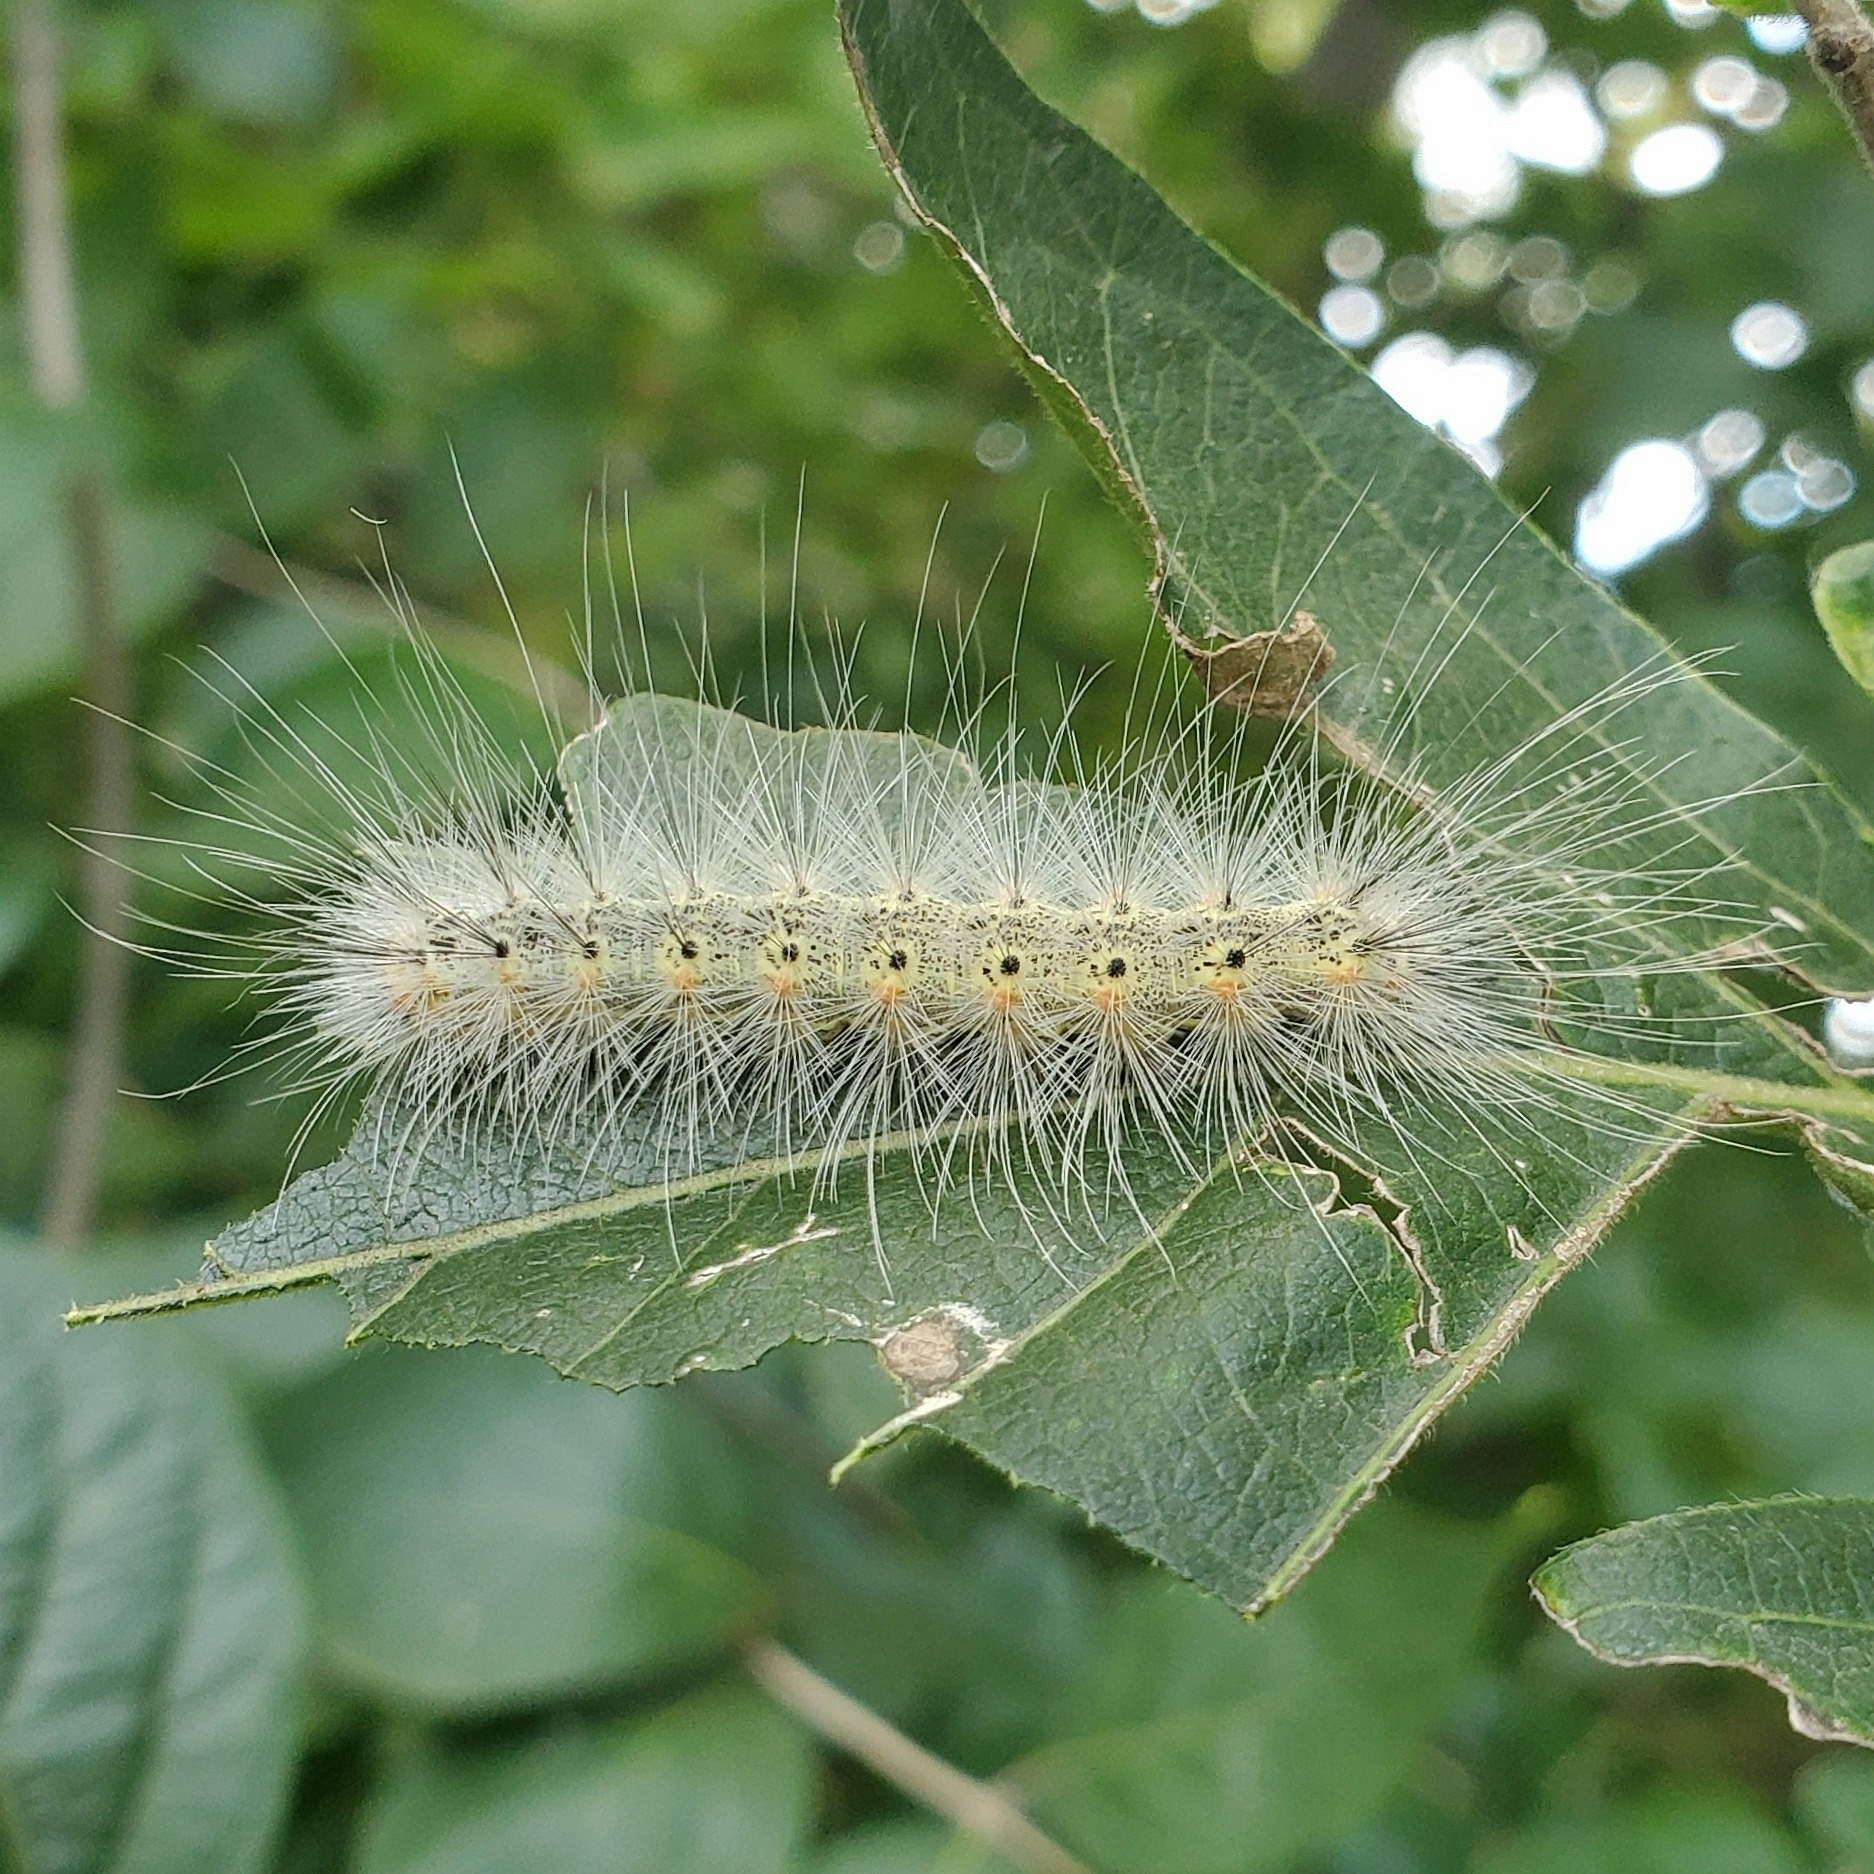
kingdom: Animalia
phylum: Arthropoda
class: Insecta
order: Lepidoptera
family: Erebidae
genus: Hyphantria
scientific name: Hyphantria cunea
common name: American white moth
